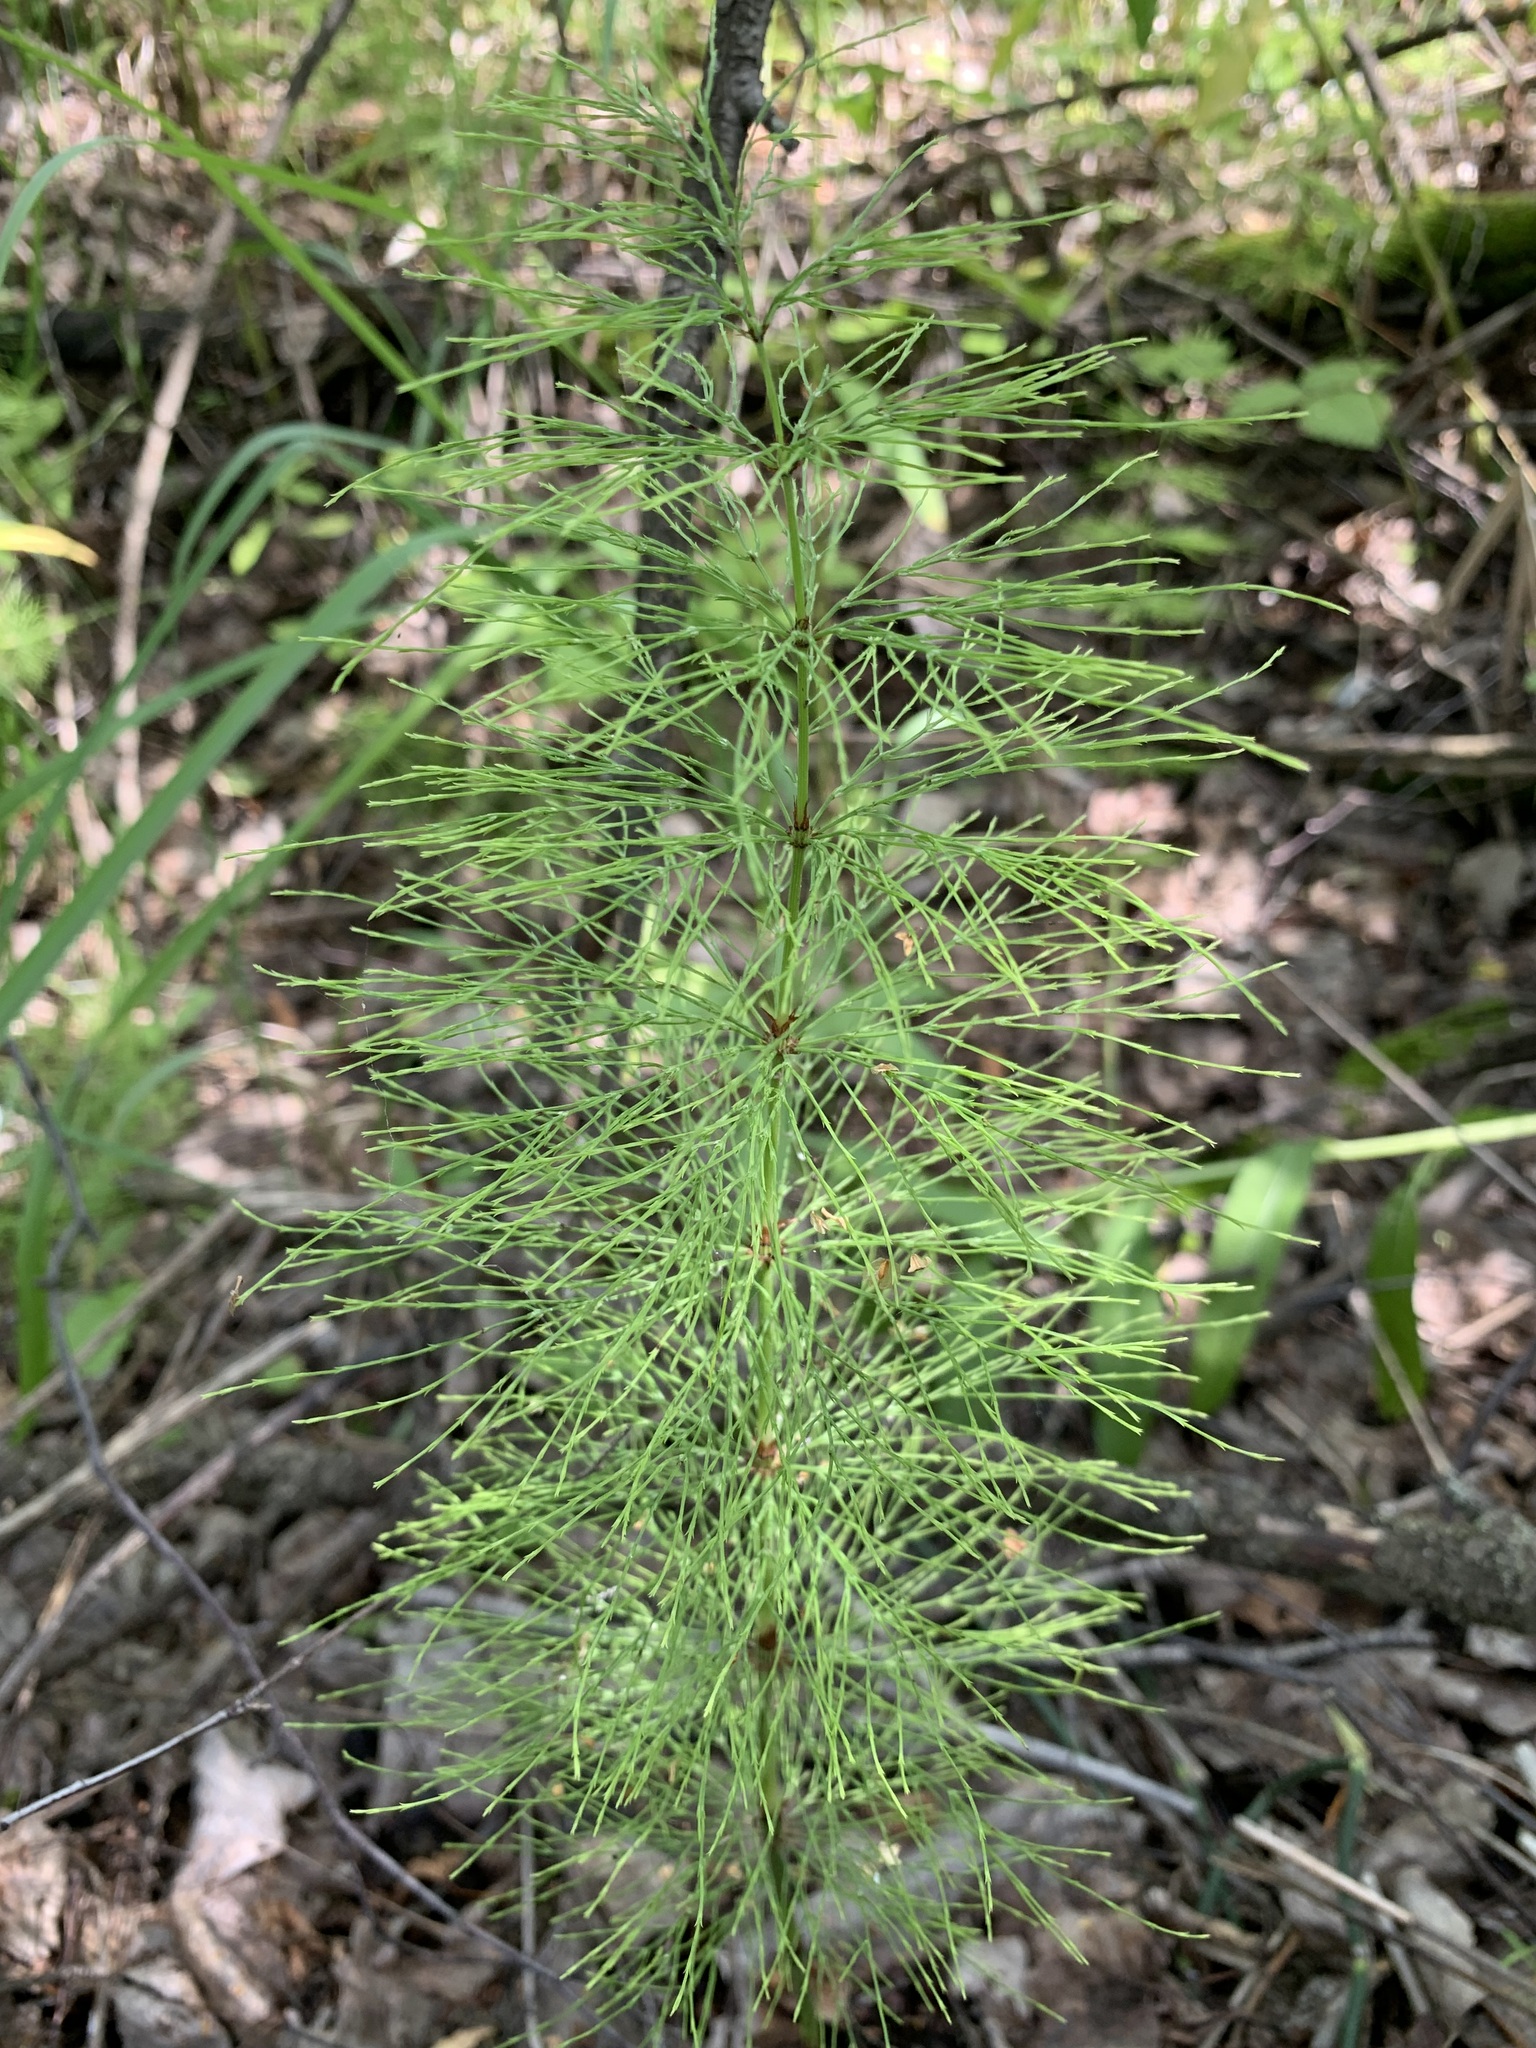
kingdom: Plantae
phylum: Tracheophyta
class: Polypodiopsida
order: Equisetales
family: Equisetaceae
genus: Equisetum
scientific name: Equisetum sylvaticum
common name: Wood horsetail
